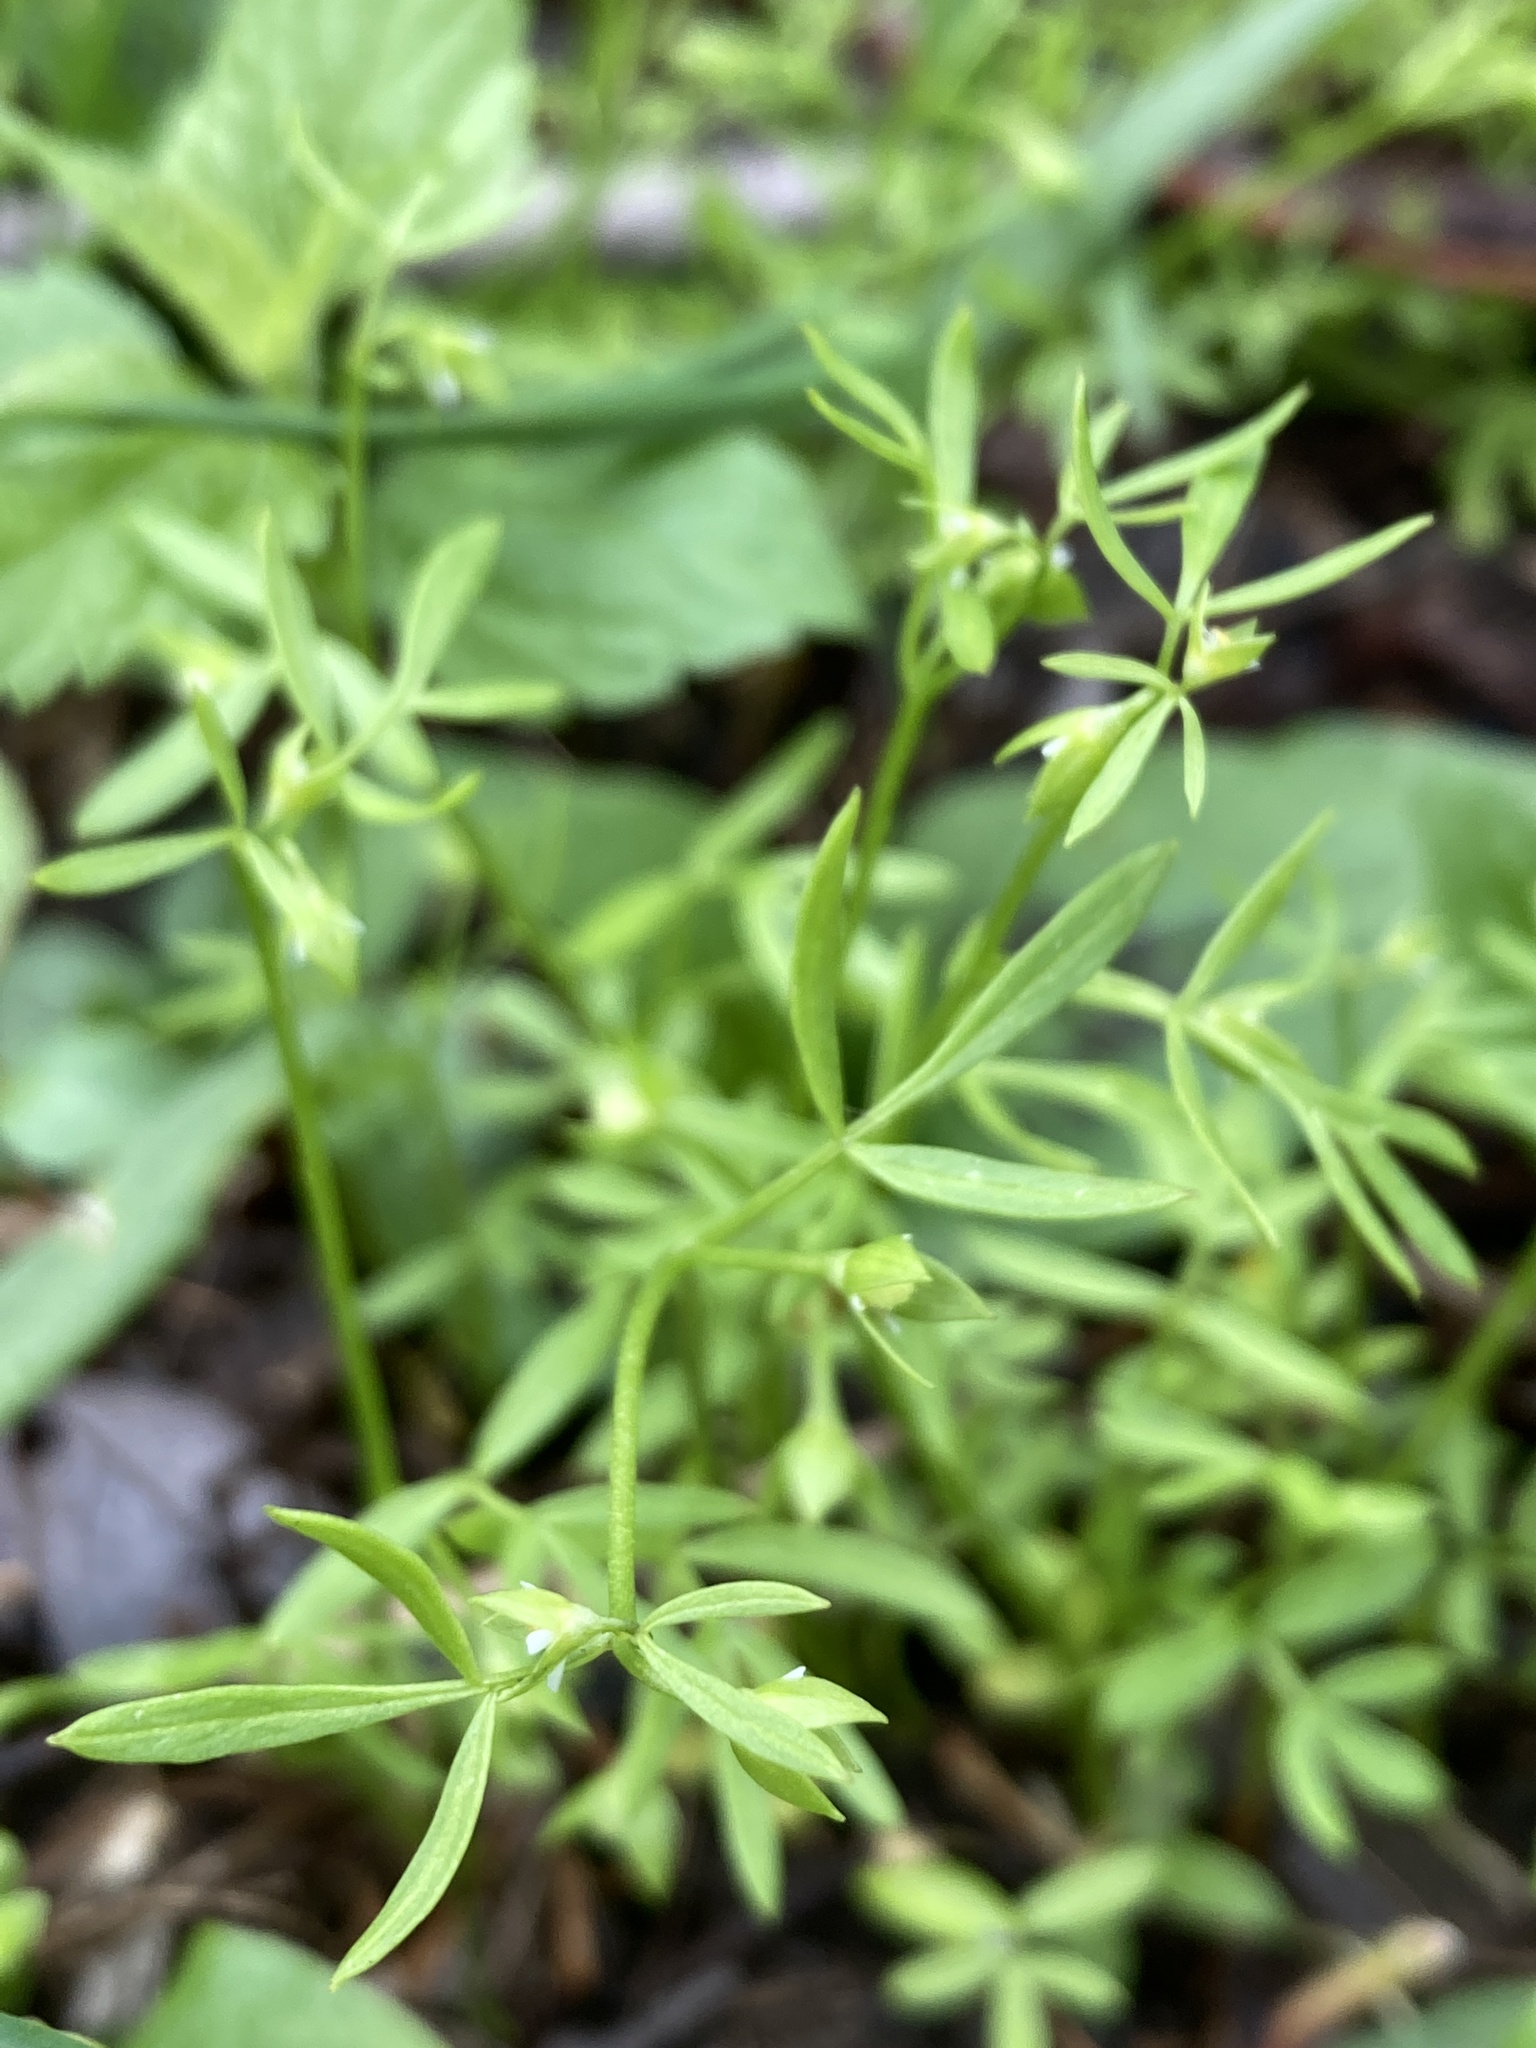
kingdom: Plantae
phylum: Tracheophyta
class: Magnoliopsida
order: Brassicales
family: Limnanthaceae
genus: Floerkea
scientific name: Floerkea proserpinacoides
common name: False mermaid
